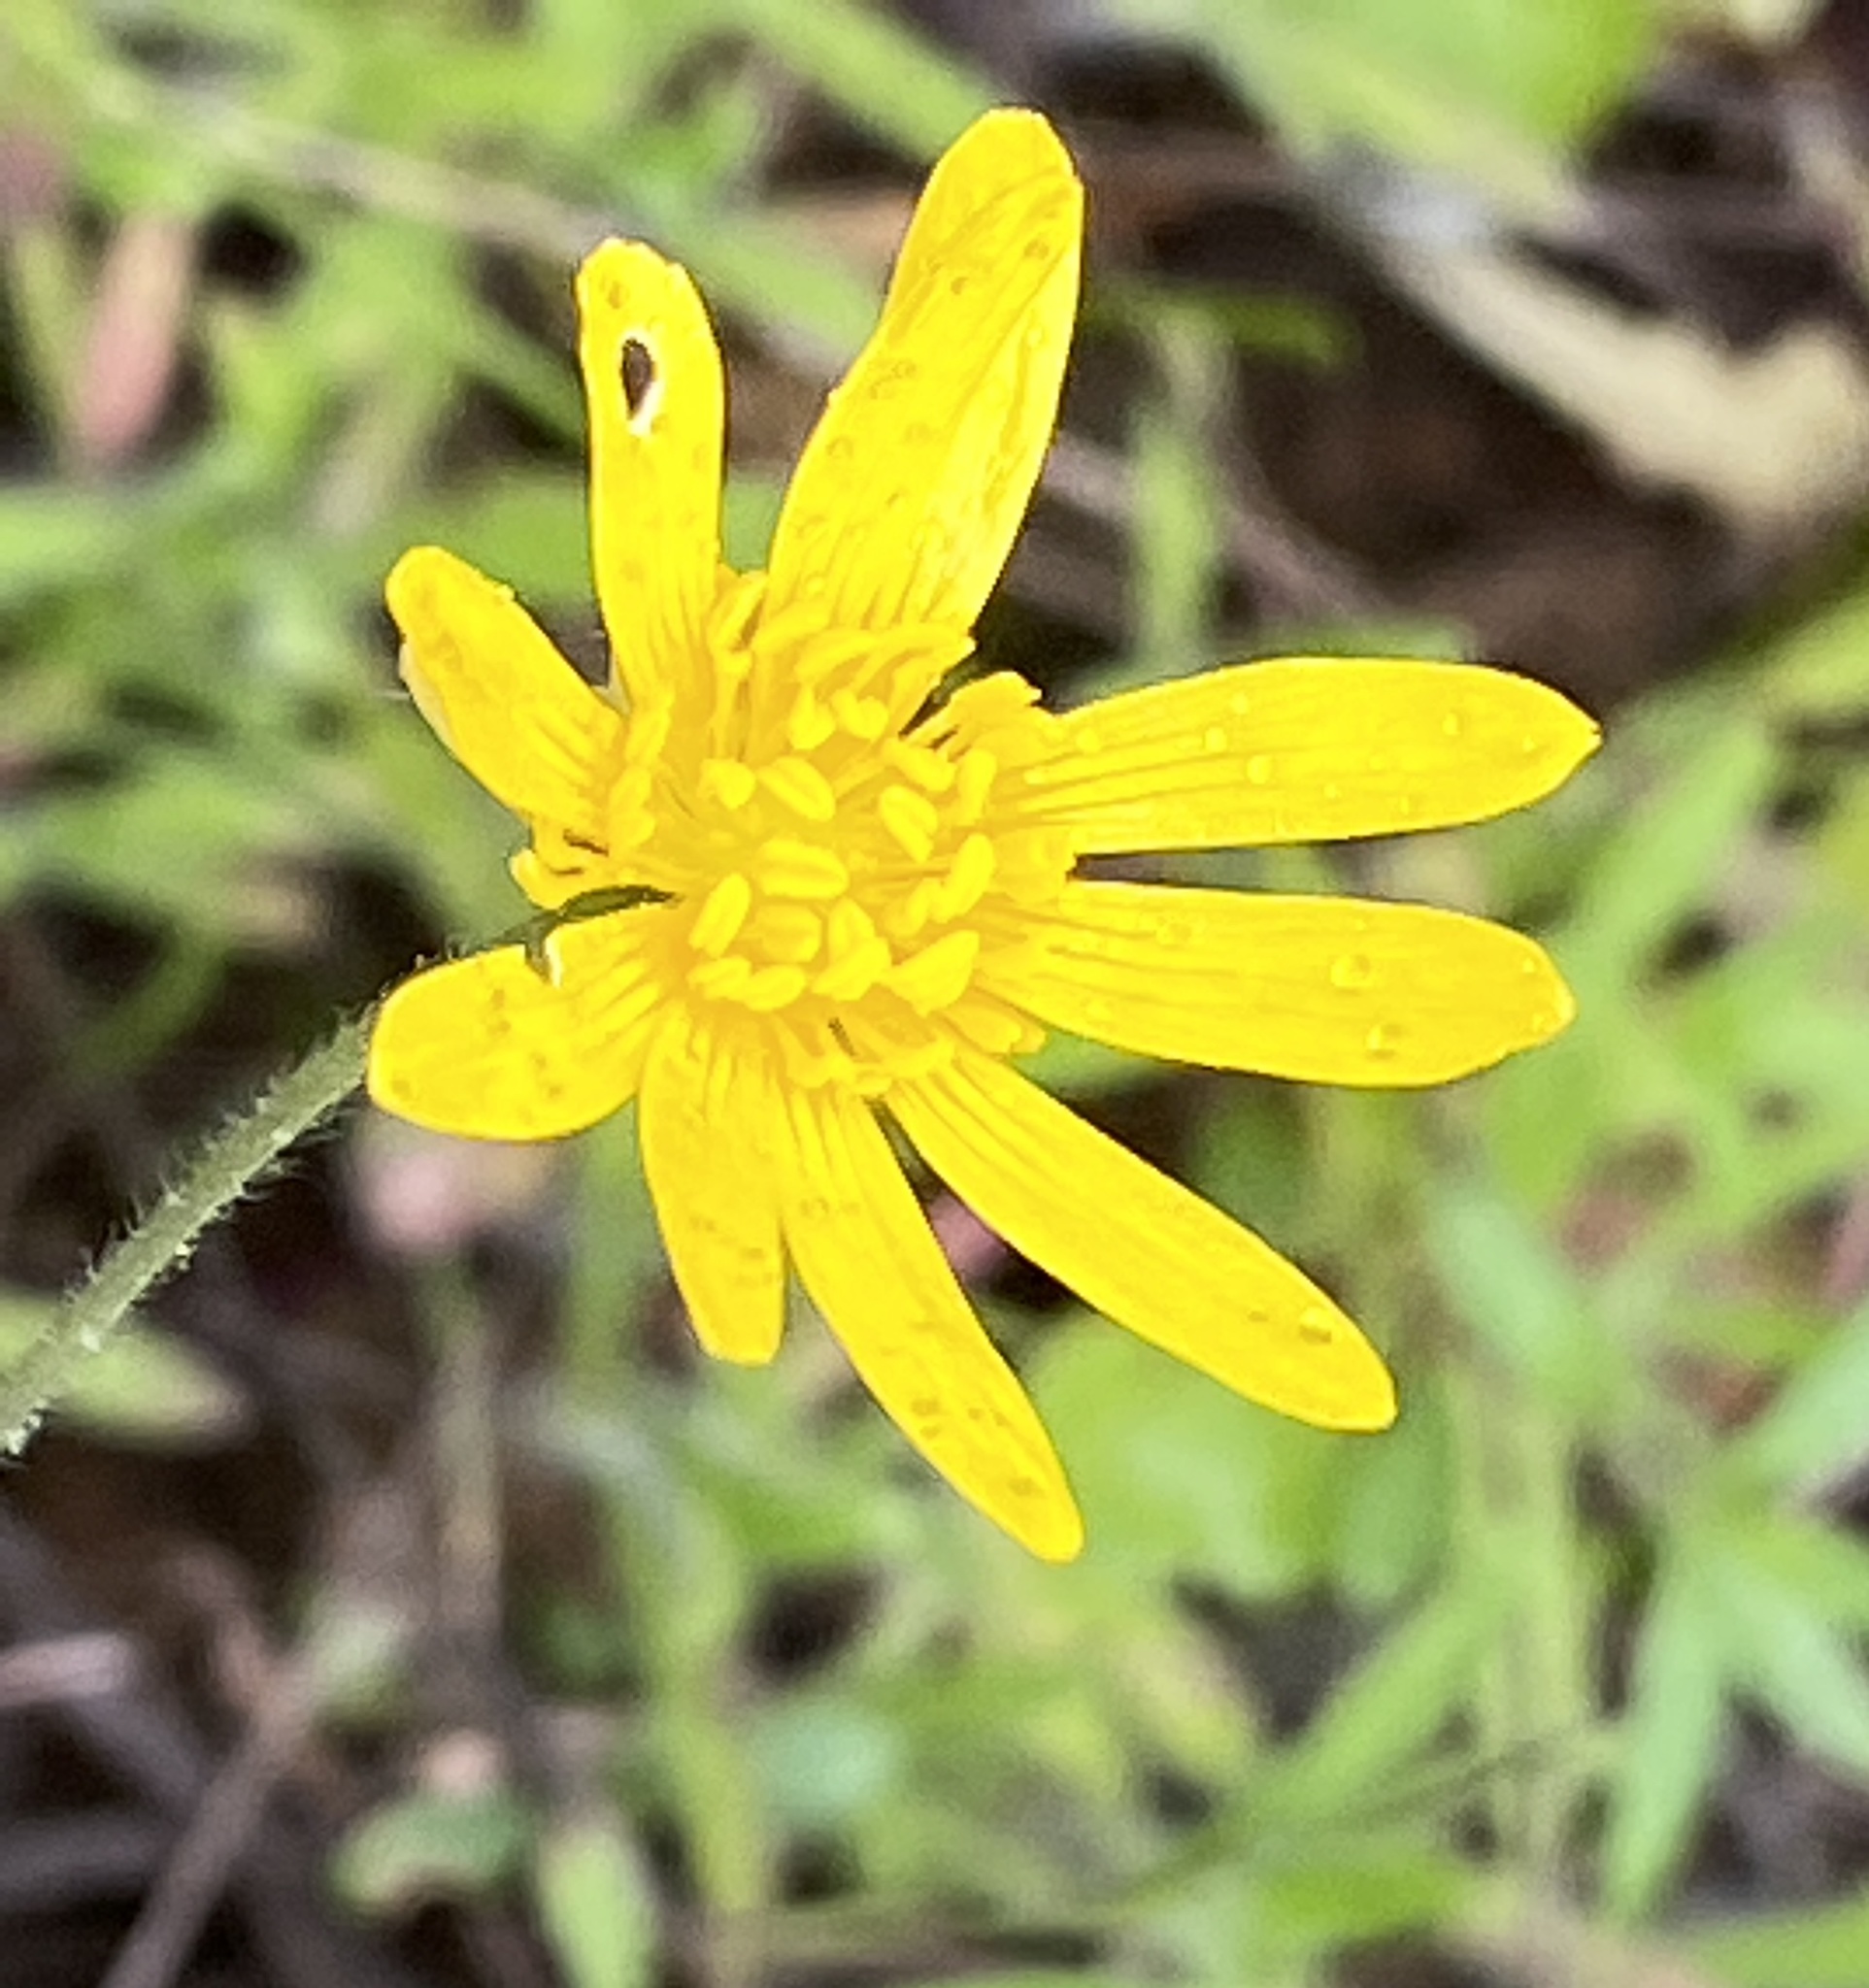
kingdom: Plantae
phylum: Tracheophyta
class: Magnoliopsida
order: Ranunculales
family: Ranunculaceae
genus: Ranunculus
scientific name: Ranunculus californicus
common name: California buttercup
